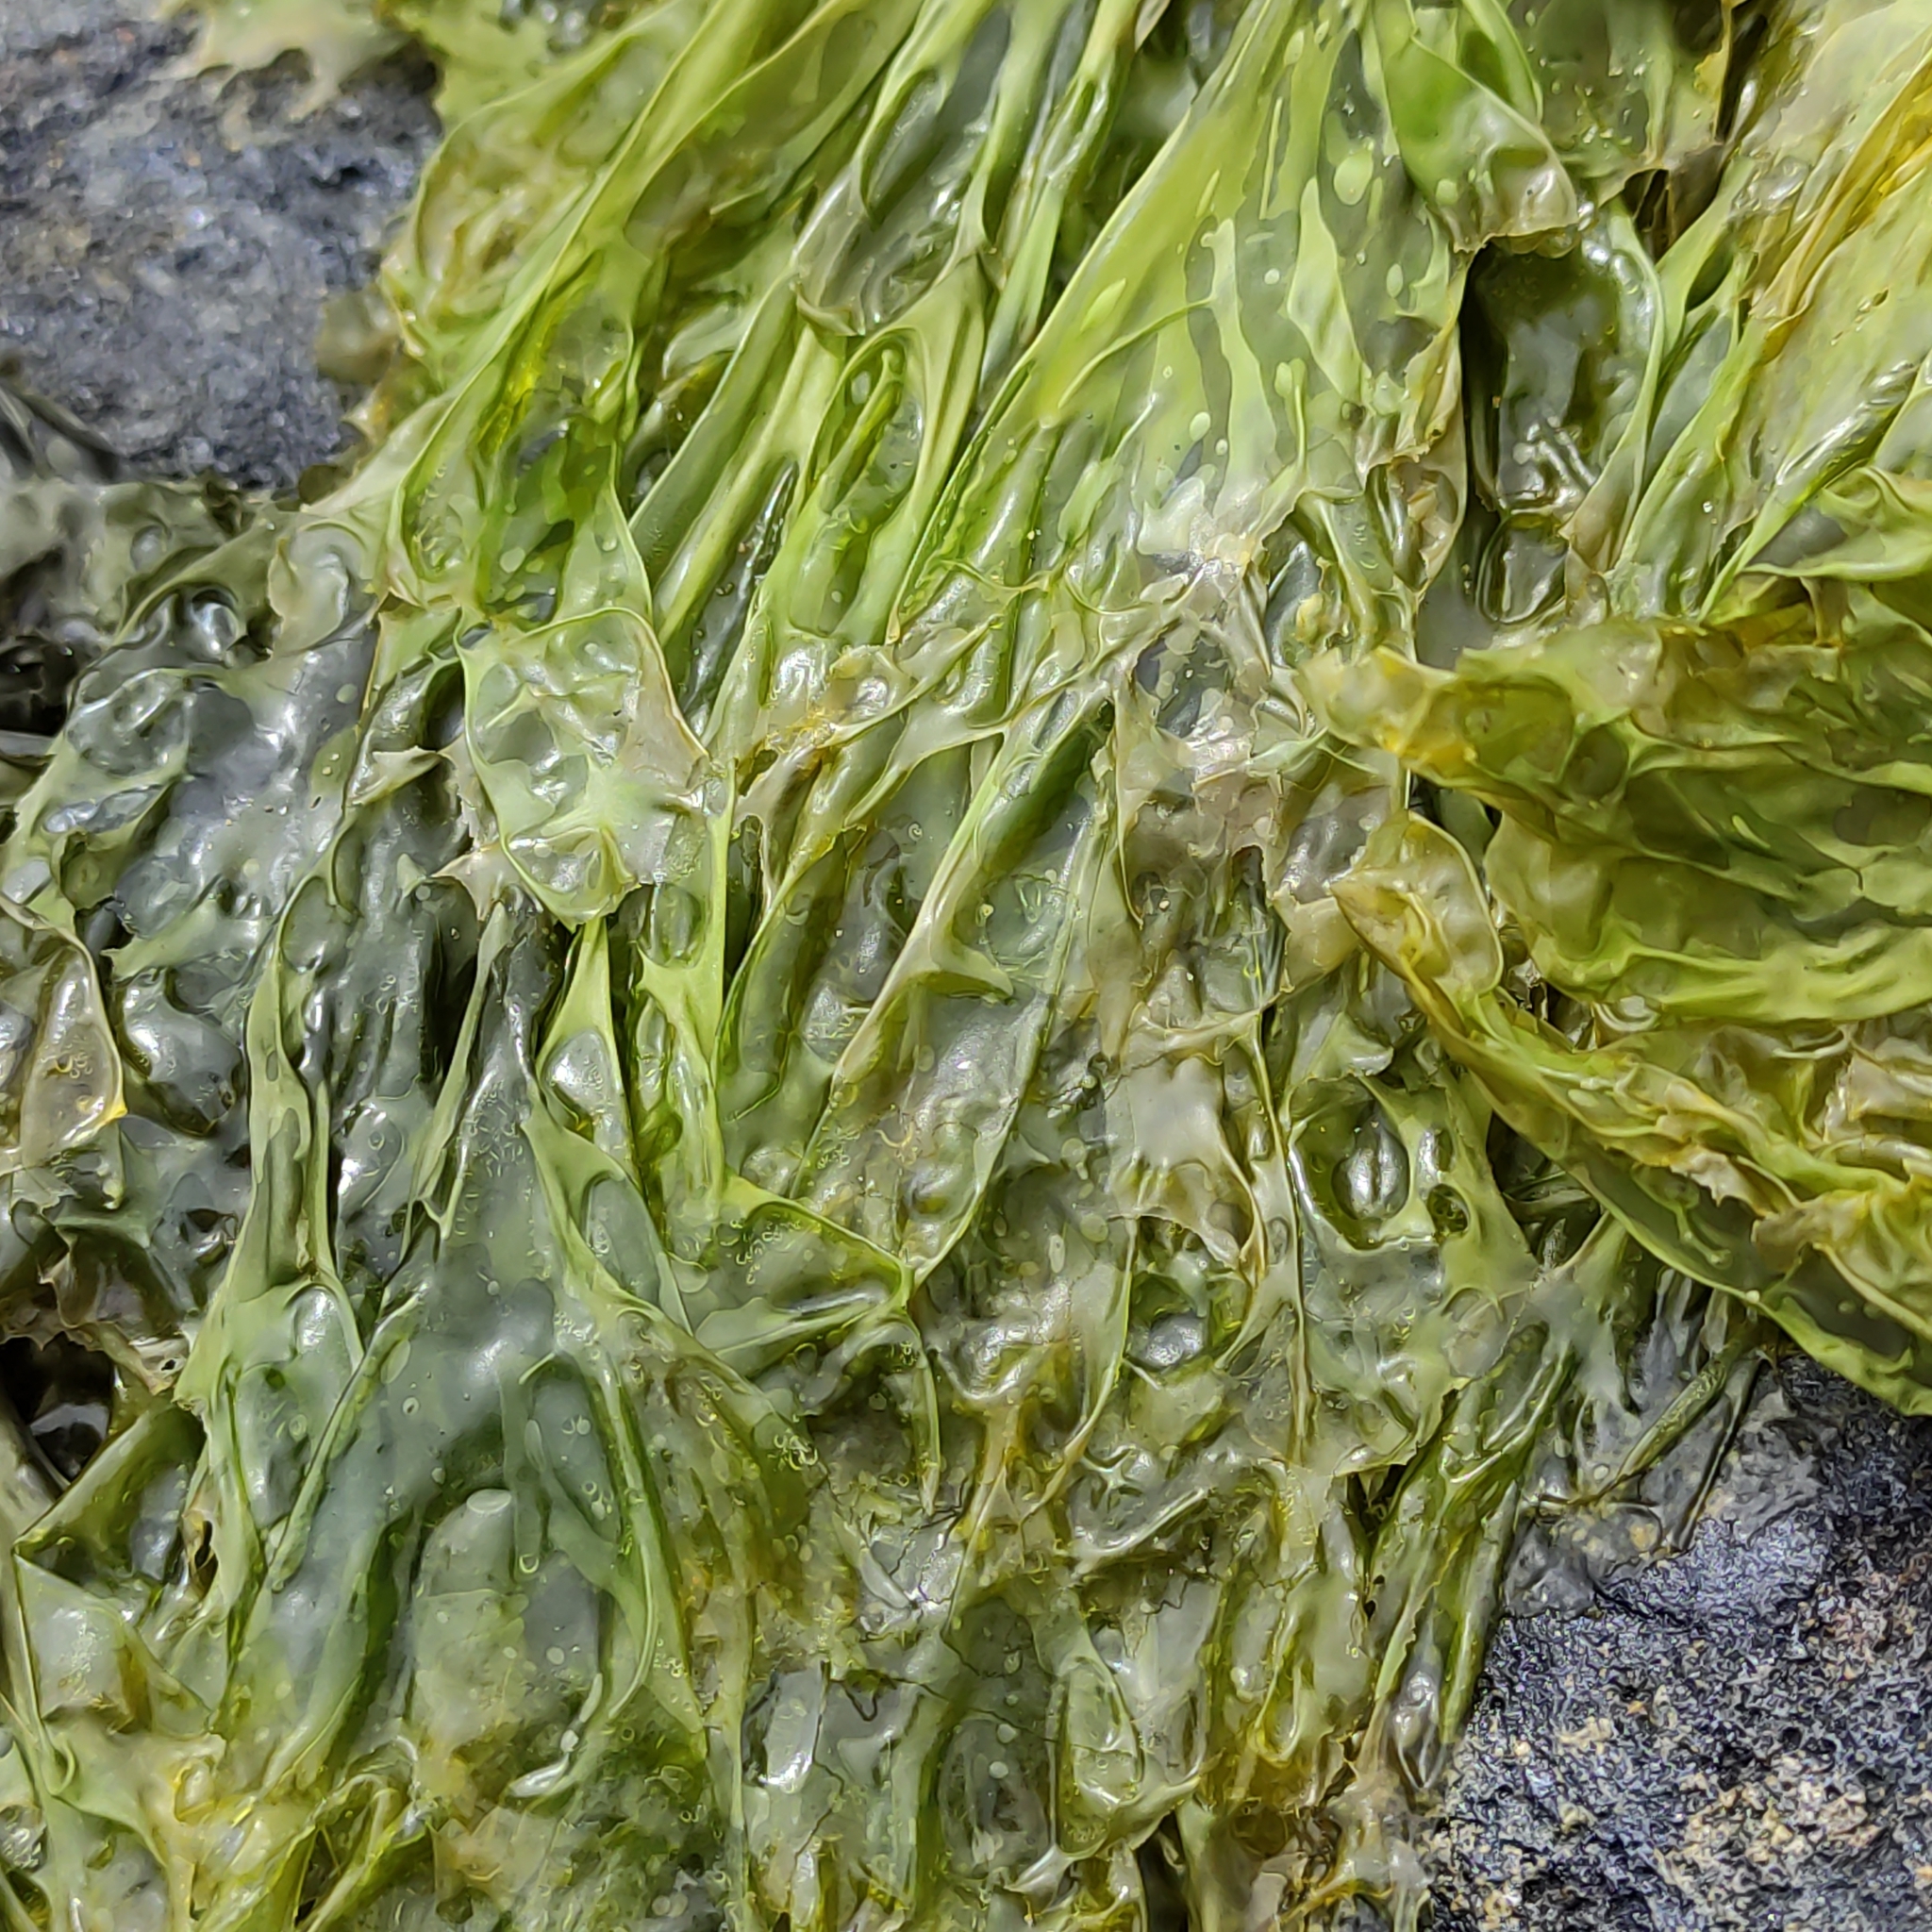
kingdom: Plantae
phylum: Chlorophyta
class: Ulvophyceae
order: Ulvales
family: Ulvaceae
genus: Ulva
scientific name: Ulva
